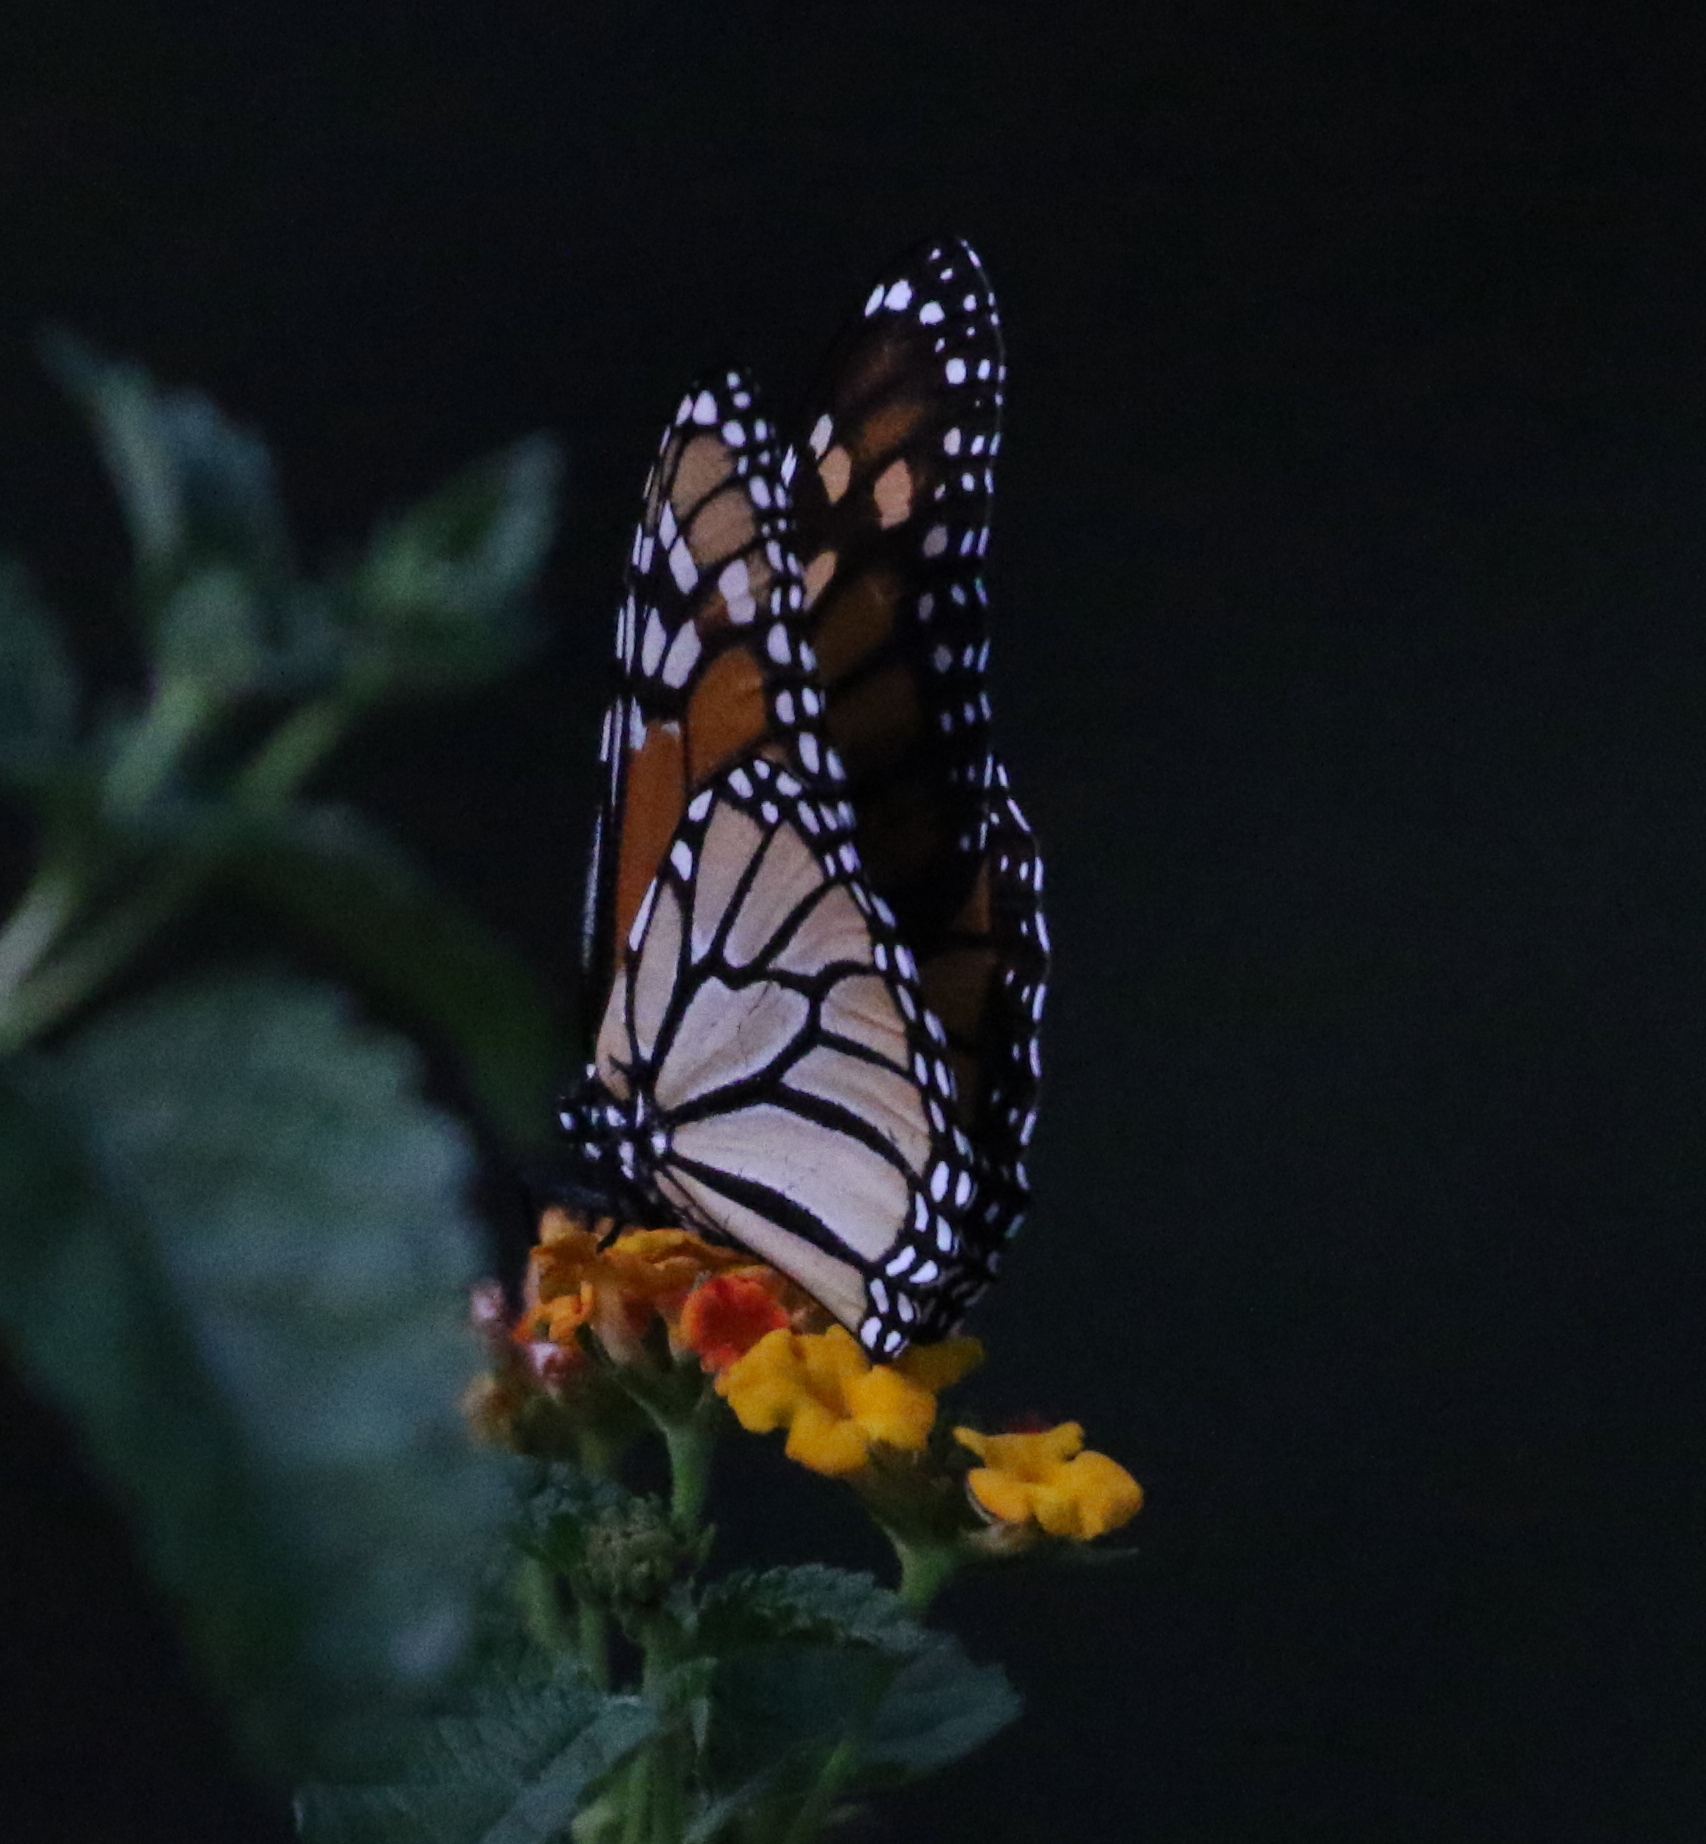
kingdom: Animalia
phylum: Arthropoda
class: Insecta
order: Lepidoptera
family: Nymphalidae
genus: Danaus
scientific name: Danaus plexippus
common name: Monarch
